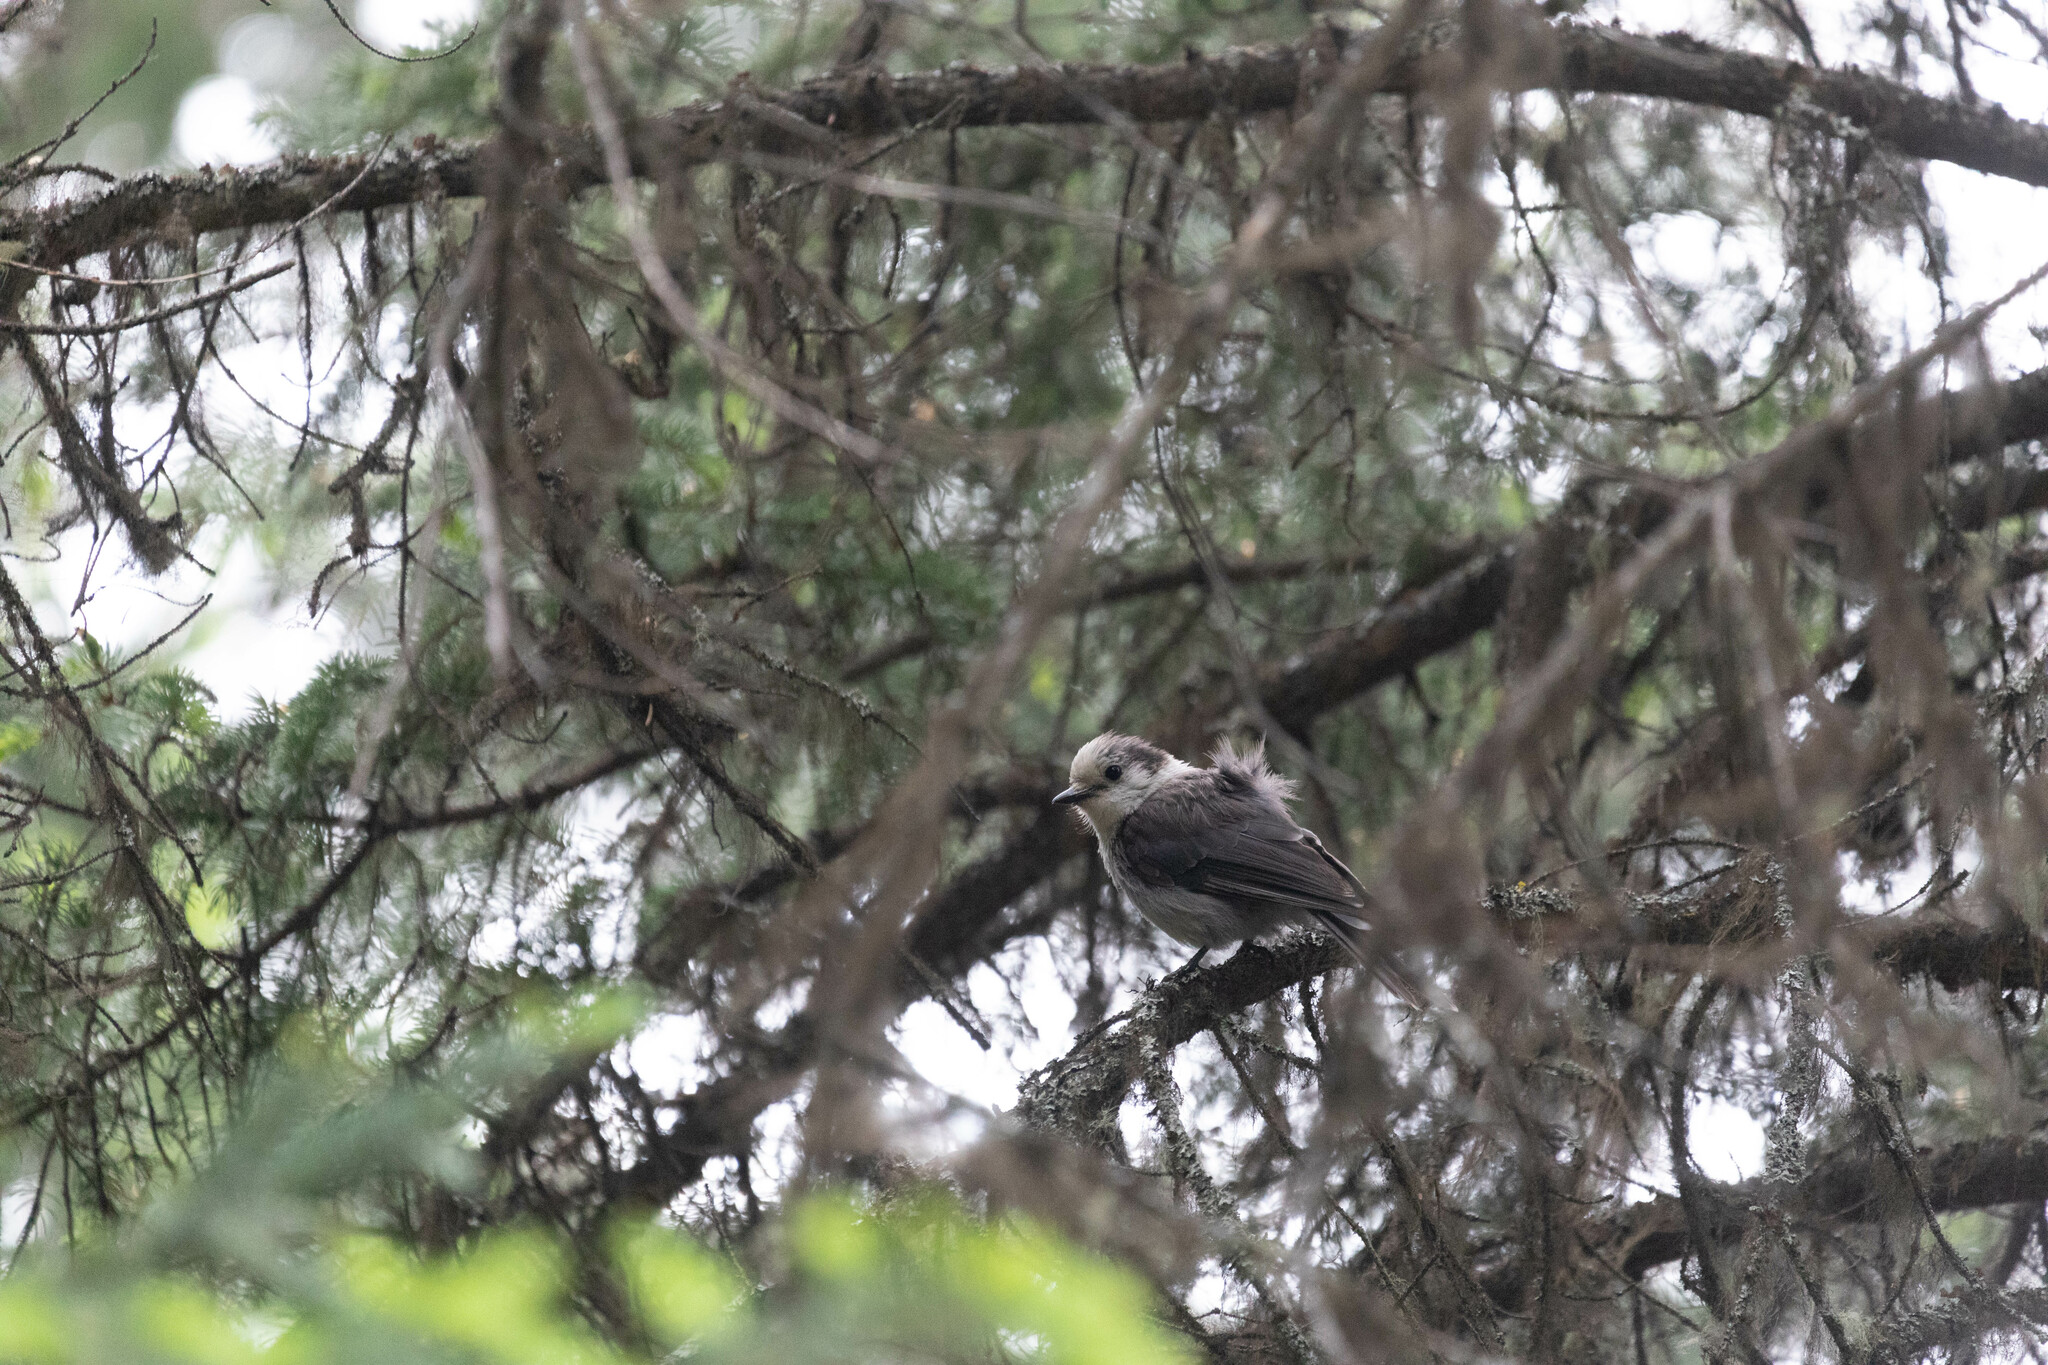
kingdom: Animalia
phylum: Chordata
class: Aves
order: Passeriformes
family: Corvidae
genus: Perisoreus
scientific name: Perisoreus canadensis
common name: Gray jay
